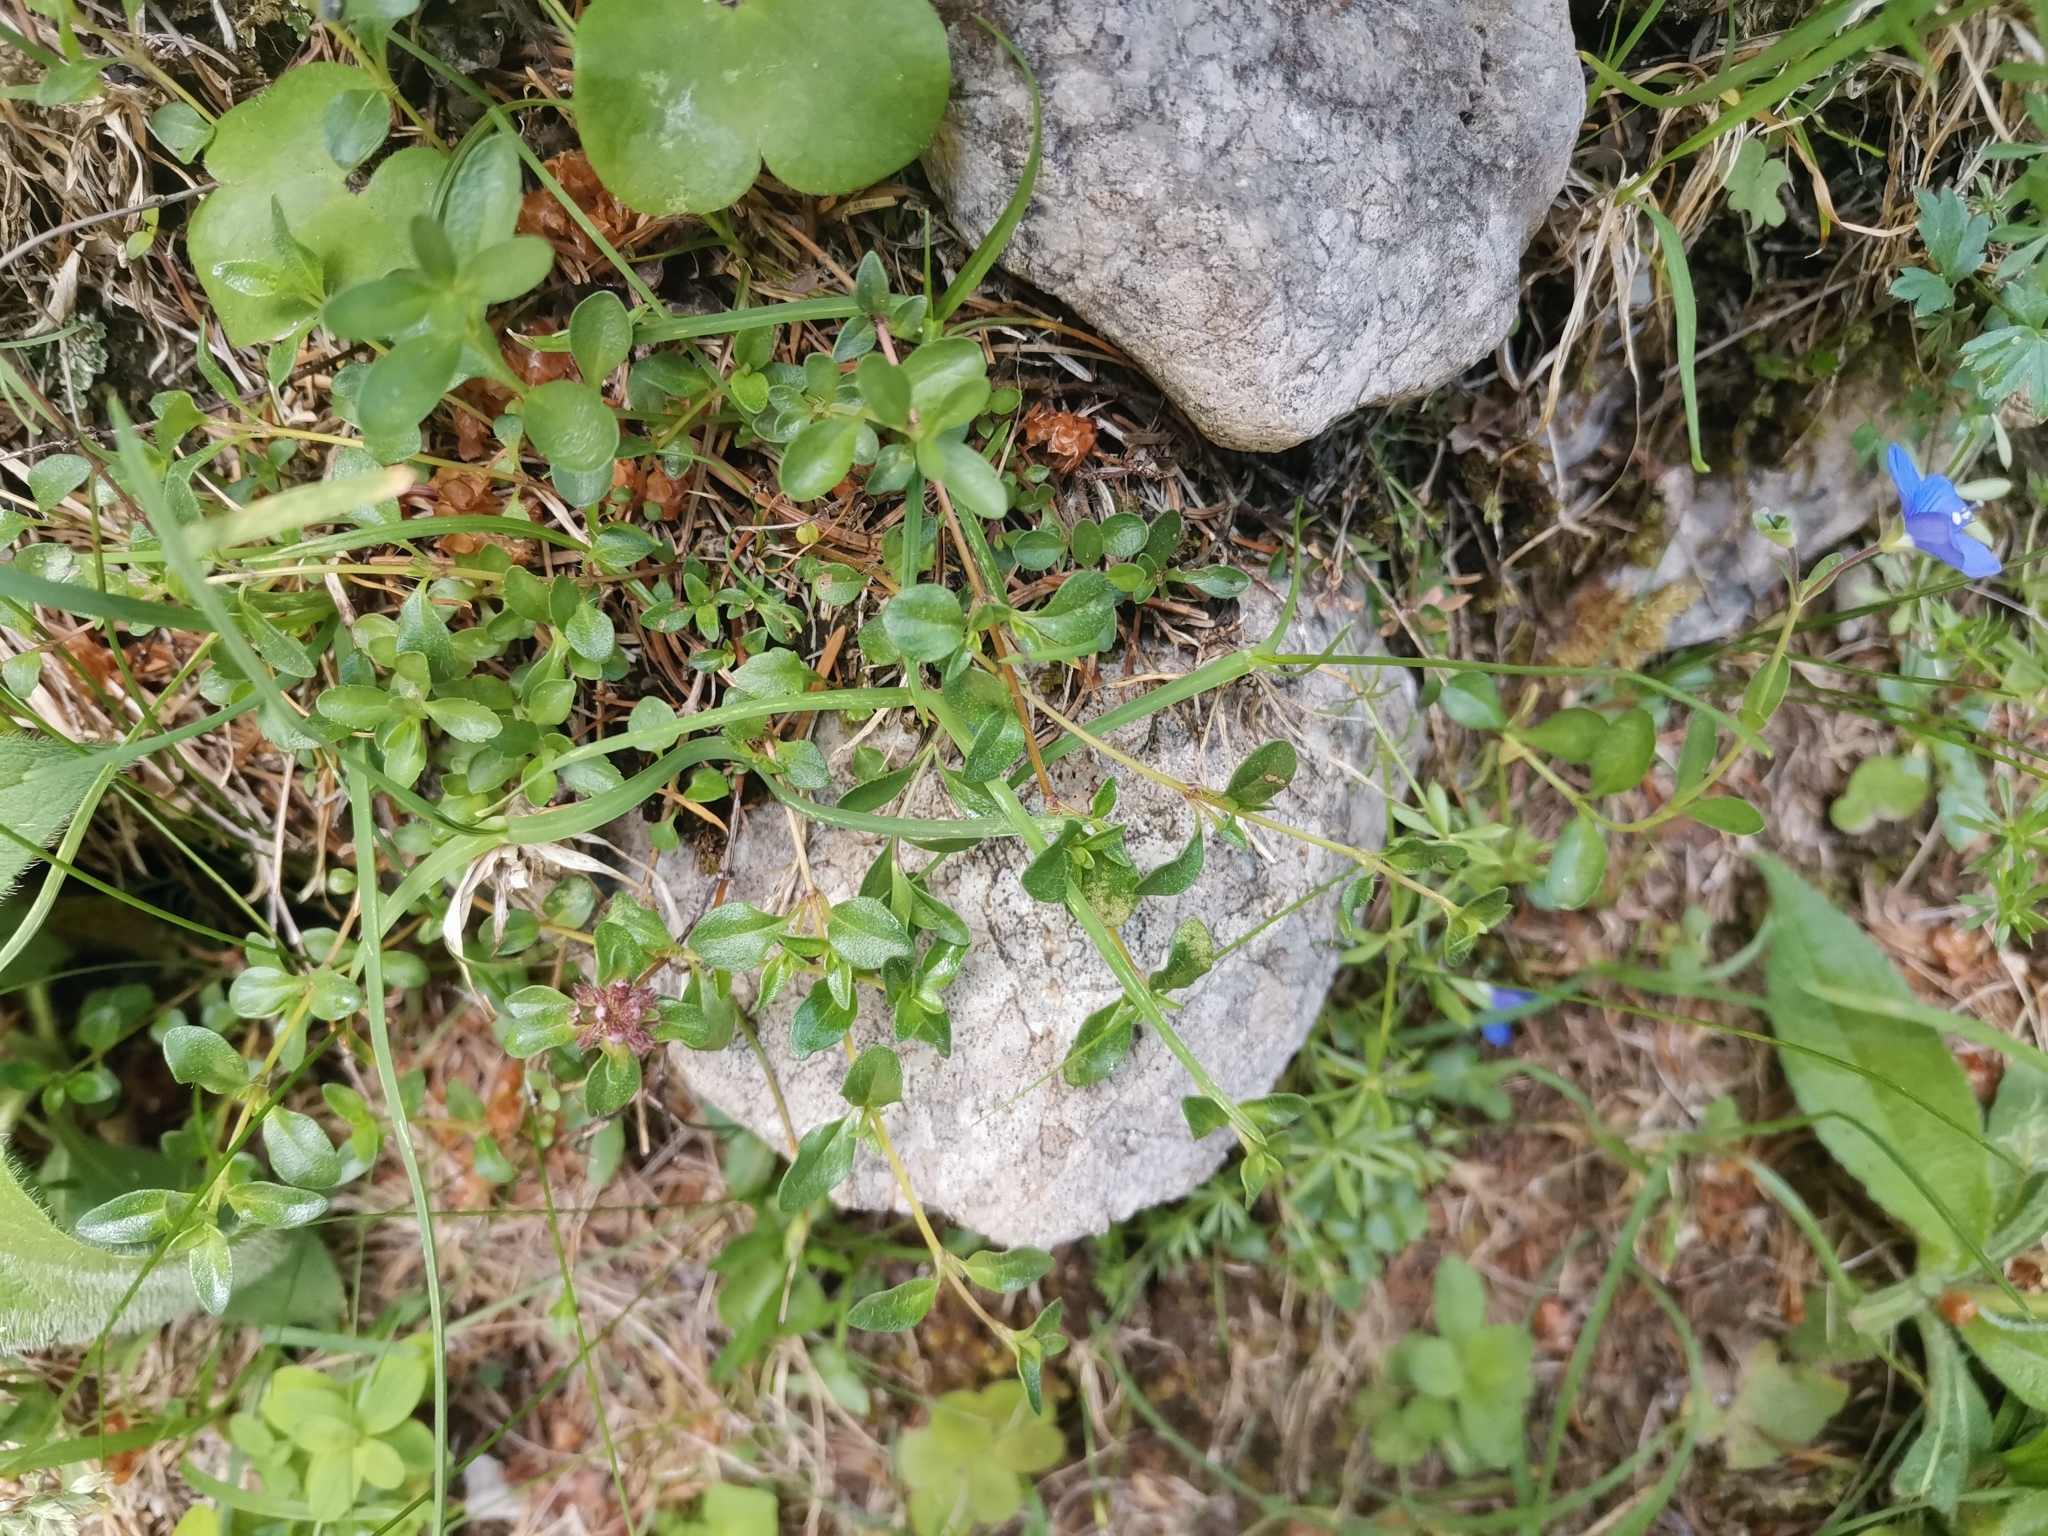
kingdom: Plantae
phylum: Tracheophyta
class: Magnoliopsida
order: Lamiales
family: Plantaginaceae
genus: Veronica
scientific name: Veronica fruticans
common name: Rock speedwell
